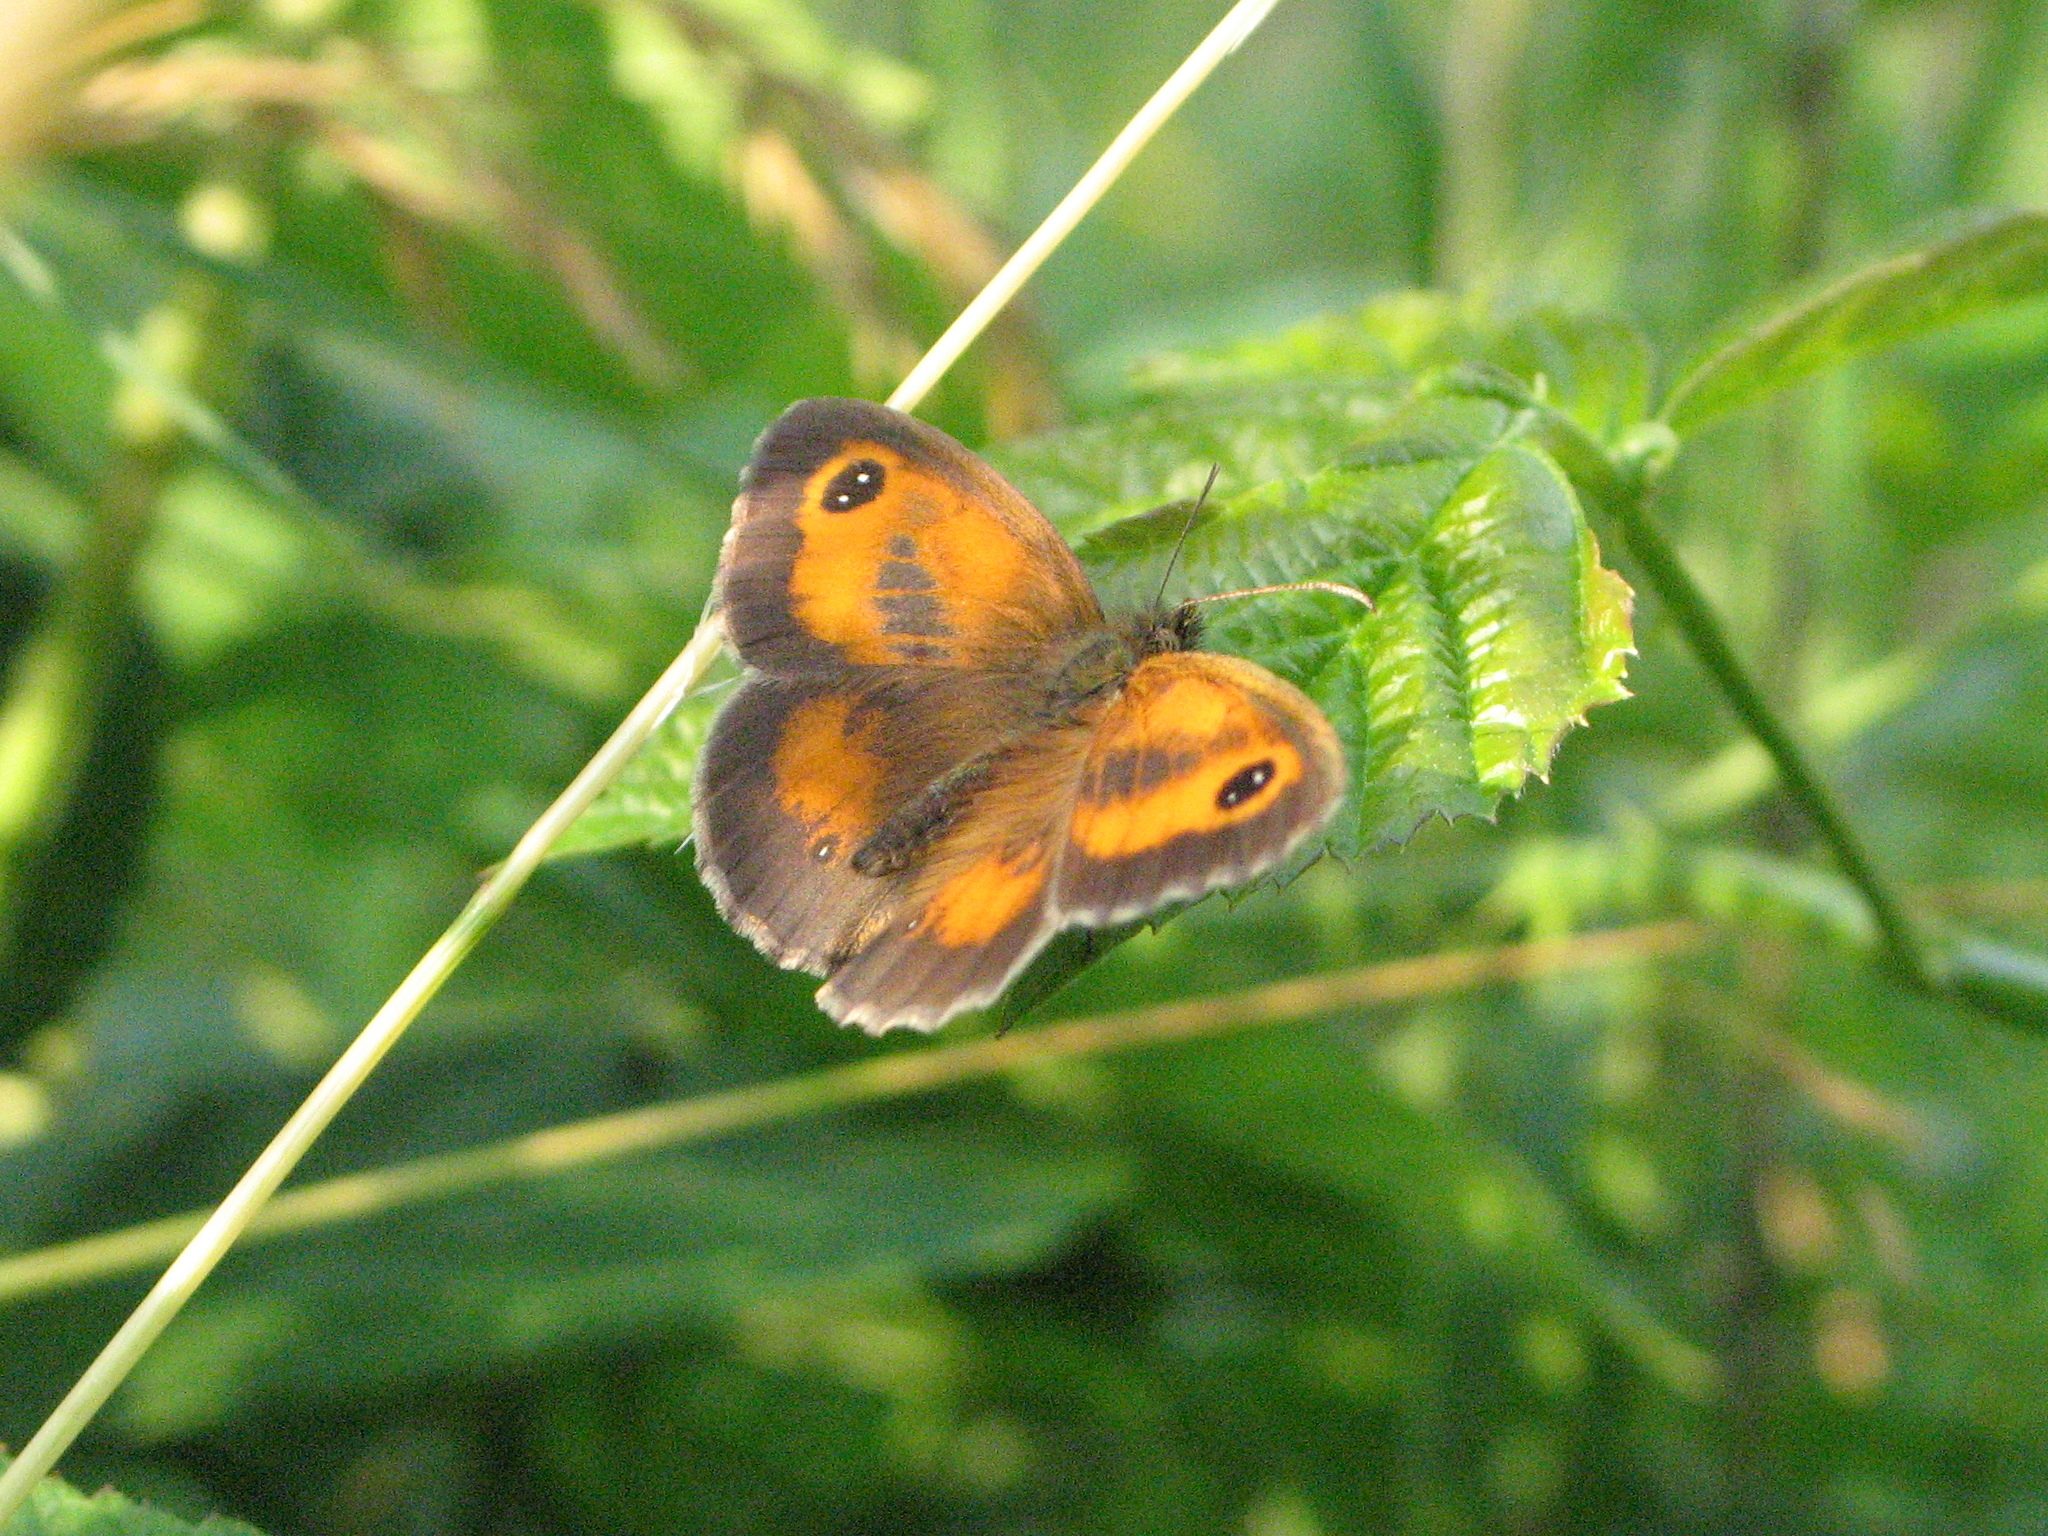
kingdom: Animalia
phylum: Arthropoda
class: Insecta
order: Lepidoptera
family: Nymphalidae
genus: Pyronia
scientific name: Pyronia tithonus
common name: Gatekeeper
